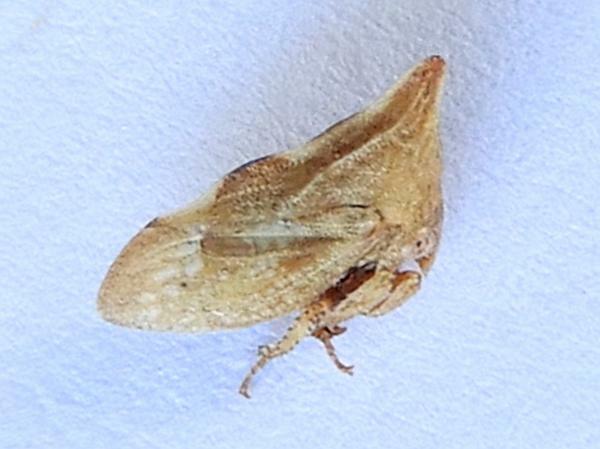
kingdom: Animalia
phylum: Arthropoda
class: Insecta
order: Hemiptera
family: Membracidae
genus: Enchenopa
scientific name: Enchenopa permutata
